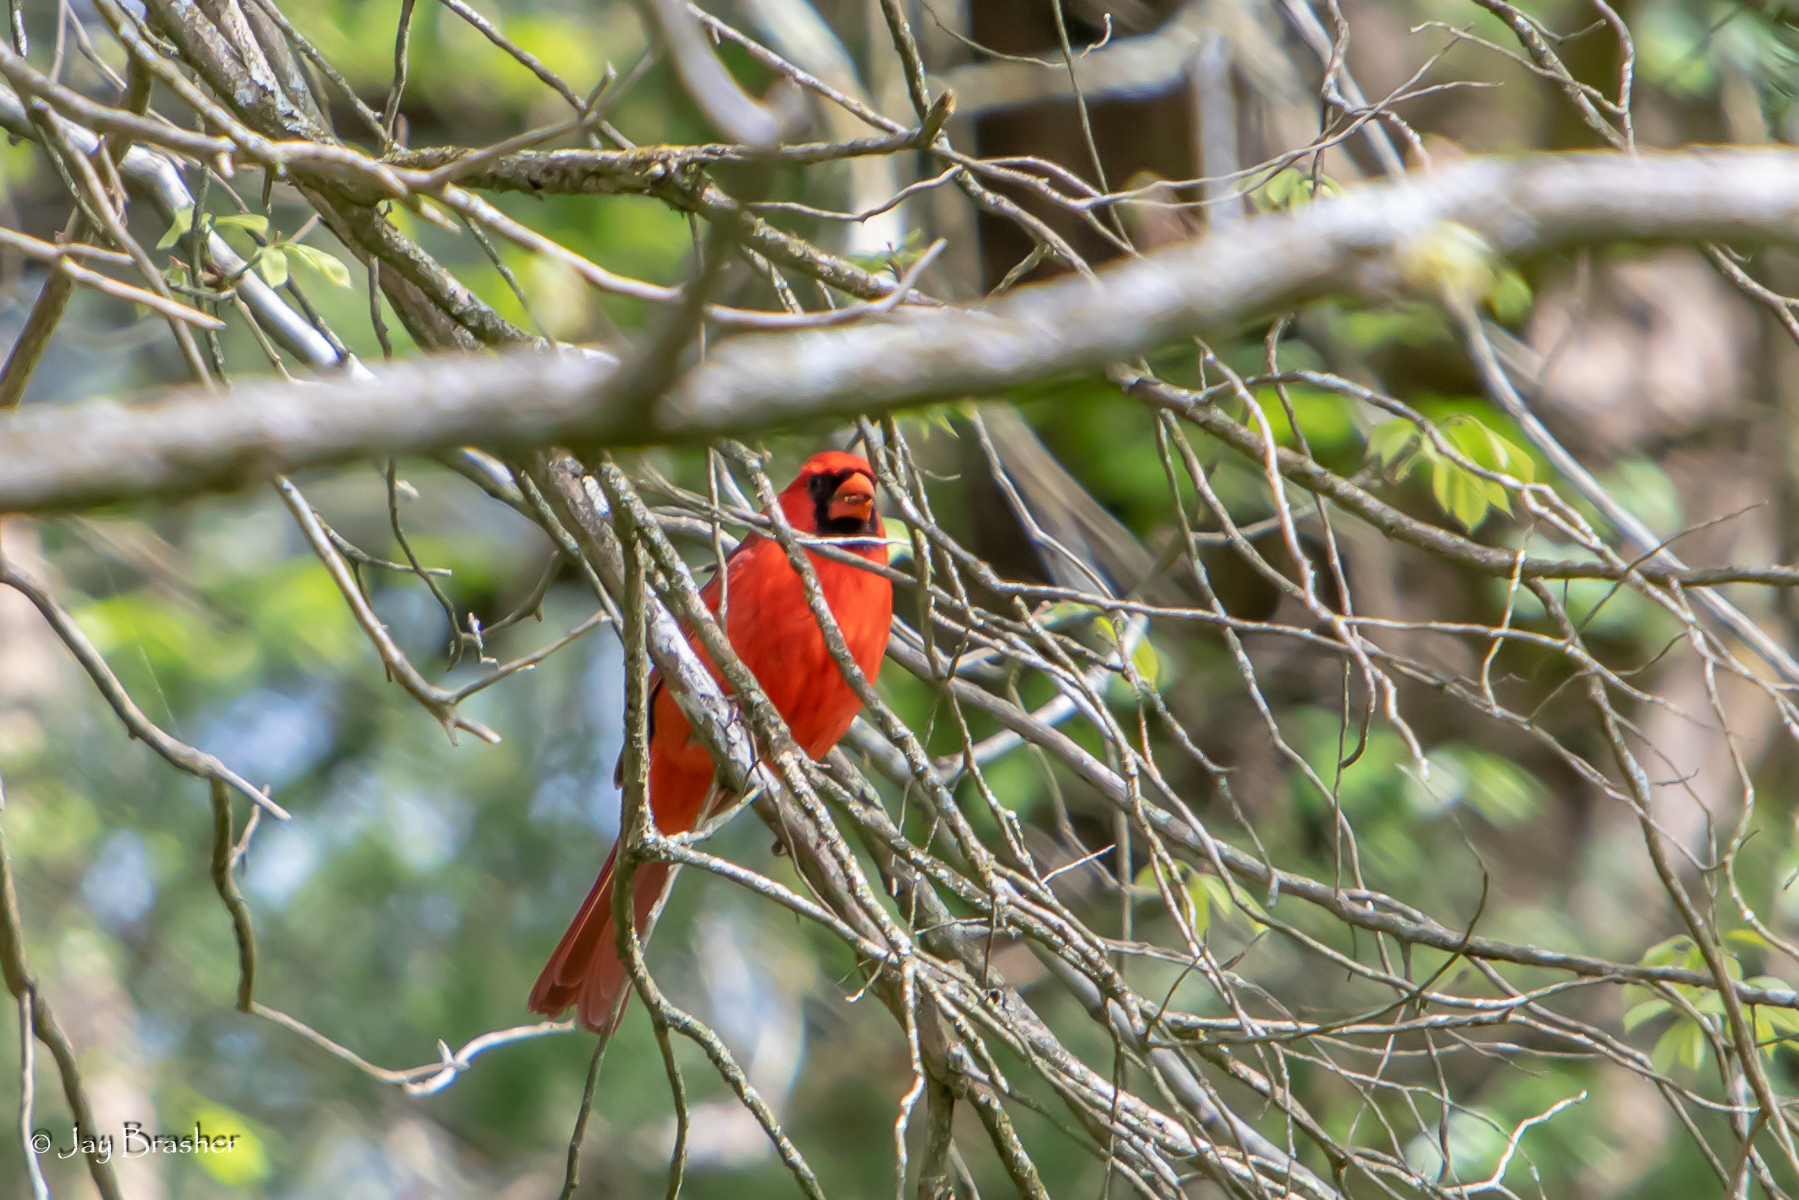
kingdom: Animalia
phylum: Chordata
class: Aves
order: Passeriformes
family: Cardinalidae
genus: Cardinalis
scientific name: Cardinalis cardinalis
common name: Northern cardinal
